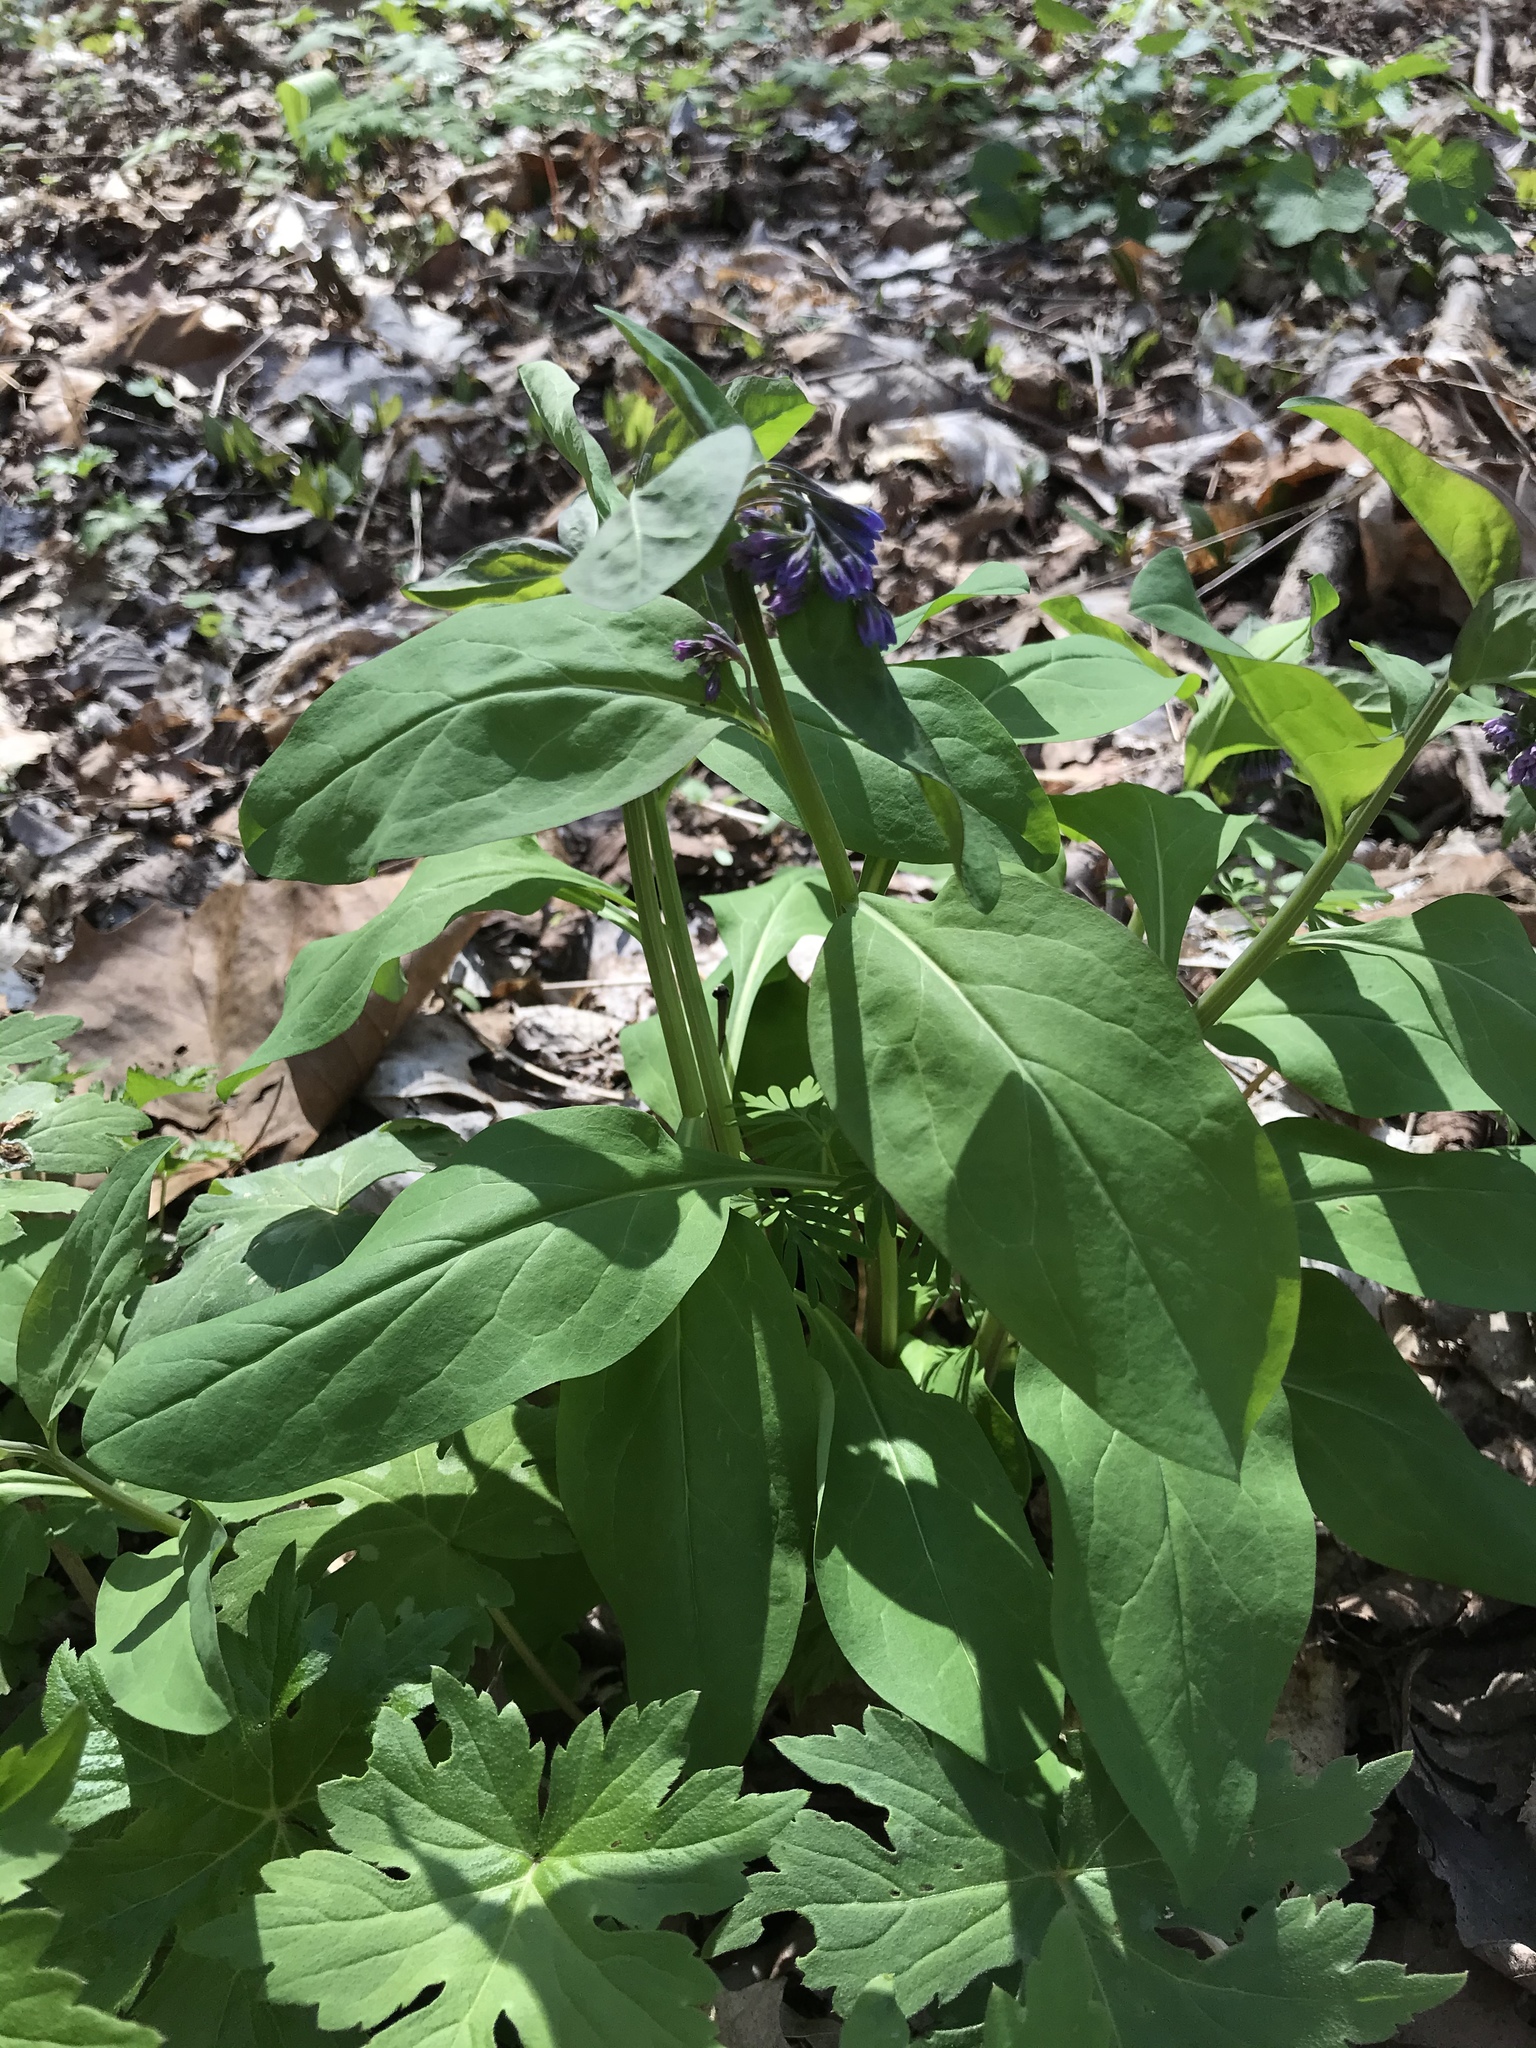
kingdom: Plantae
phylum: Tracheophyta
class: Magnoliopsida
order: Boraginales
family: Boraginaceae
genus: Mertensia
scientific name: Mertensia virginica
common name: Virginia bluebells
